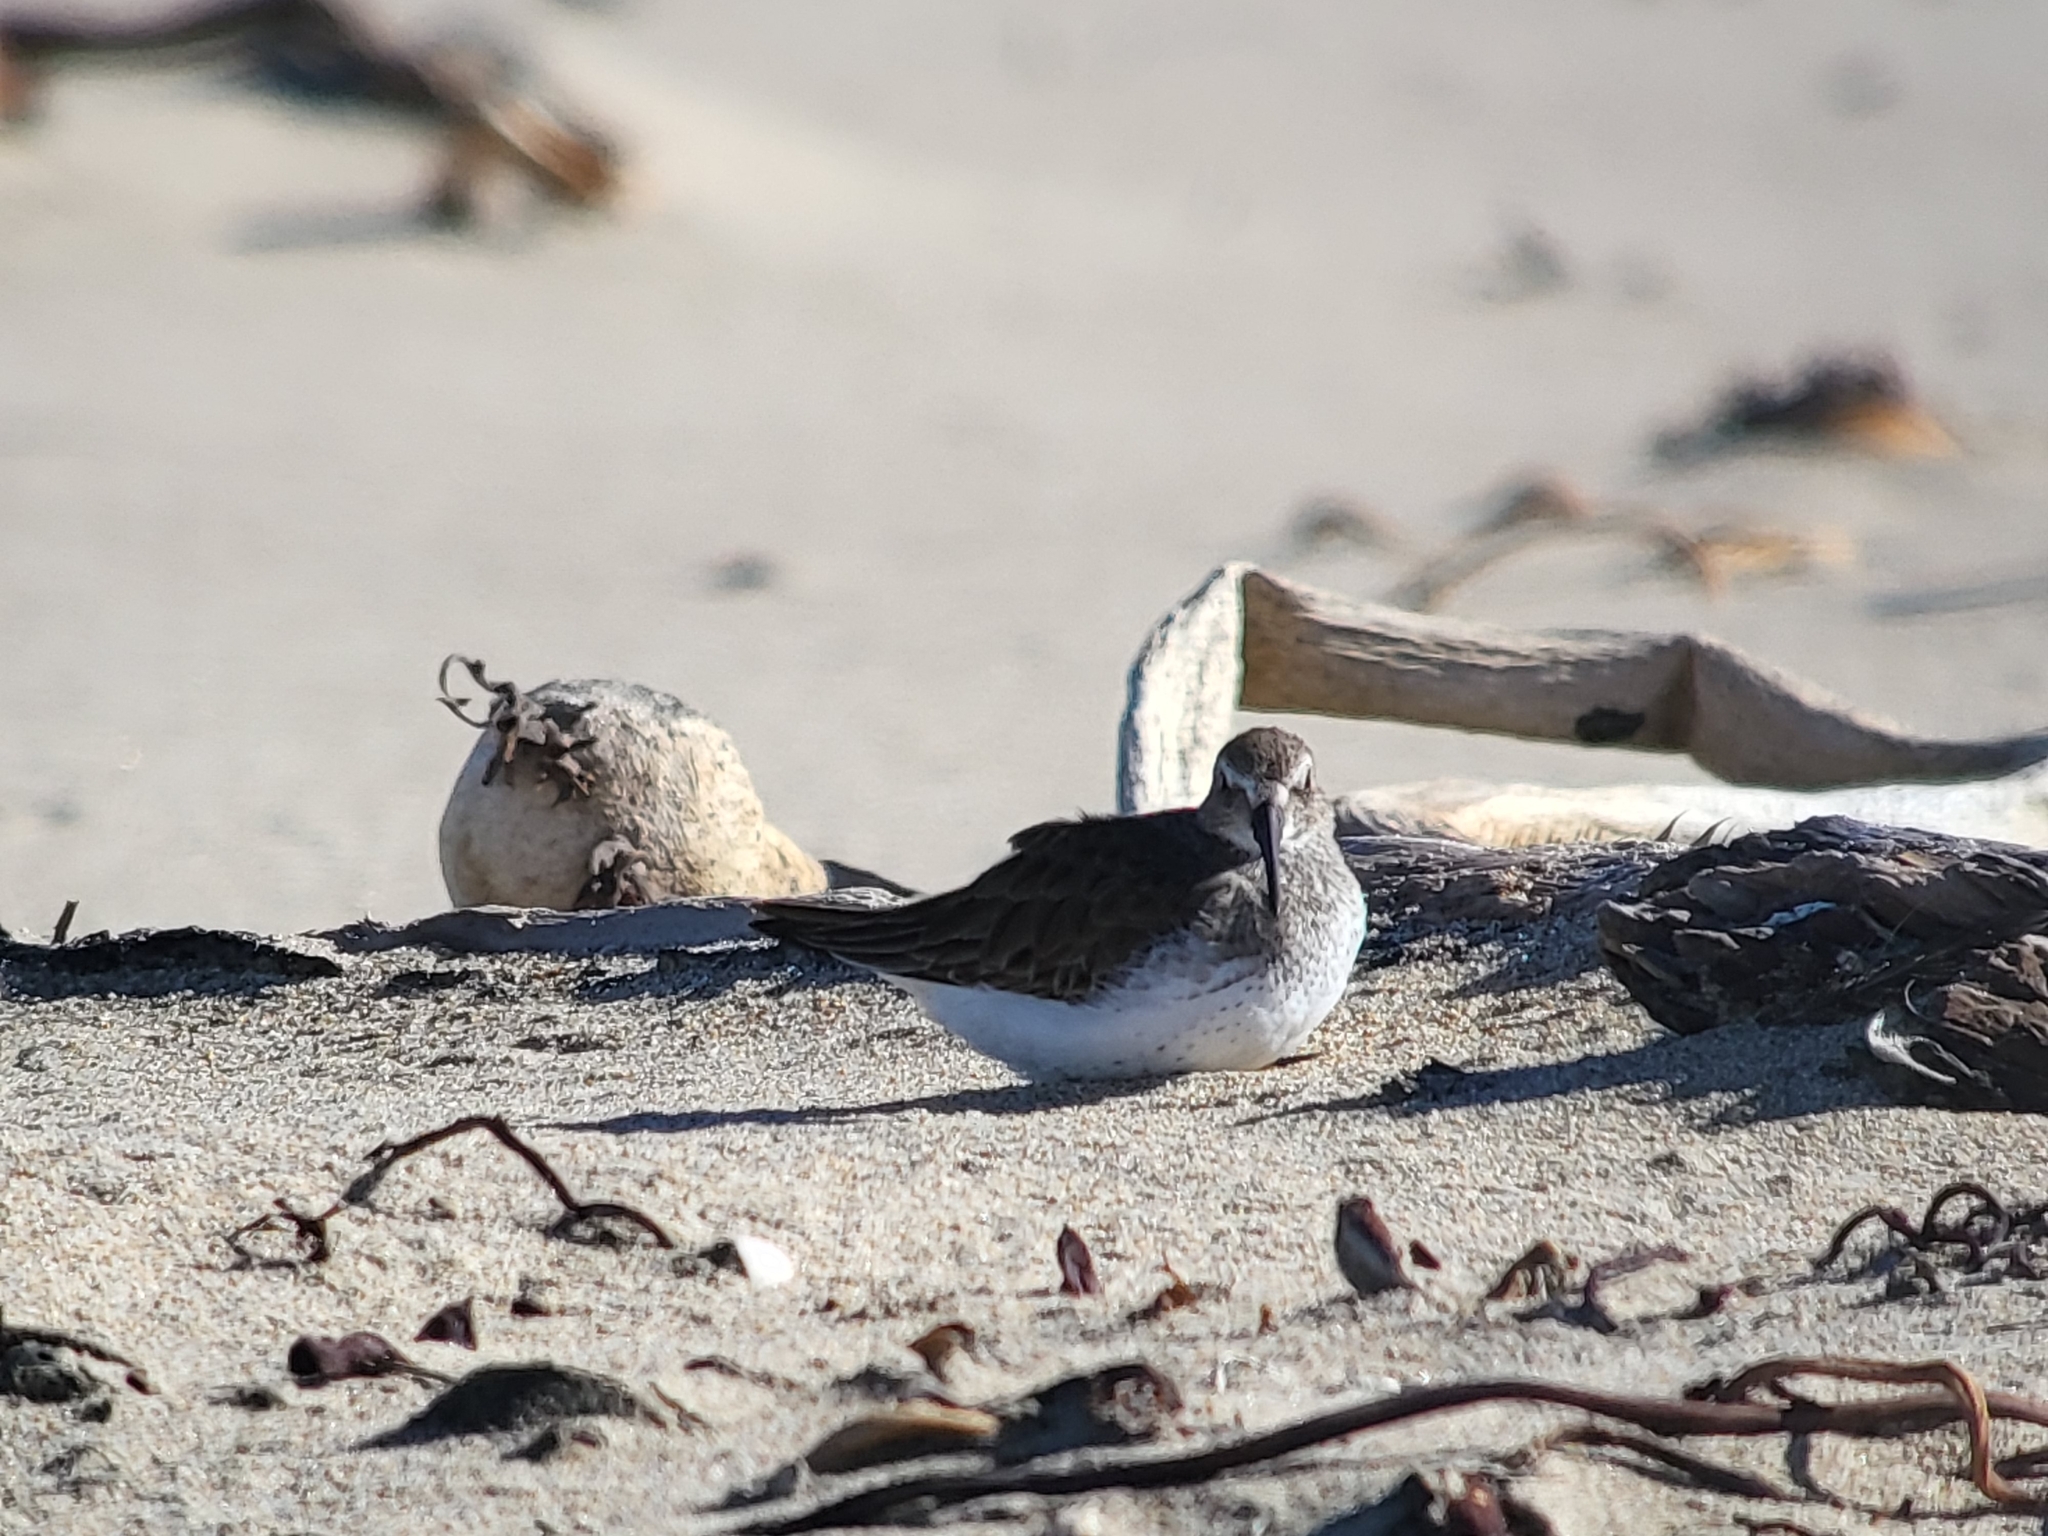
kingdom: Animalia
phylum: Chordata
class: Aves
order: Charadriiformes
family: Scolopacidae
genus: Calidris
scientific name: Calidris alpina
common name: Dunlin
